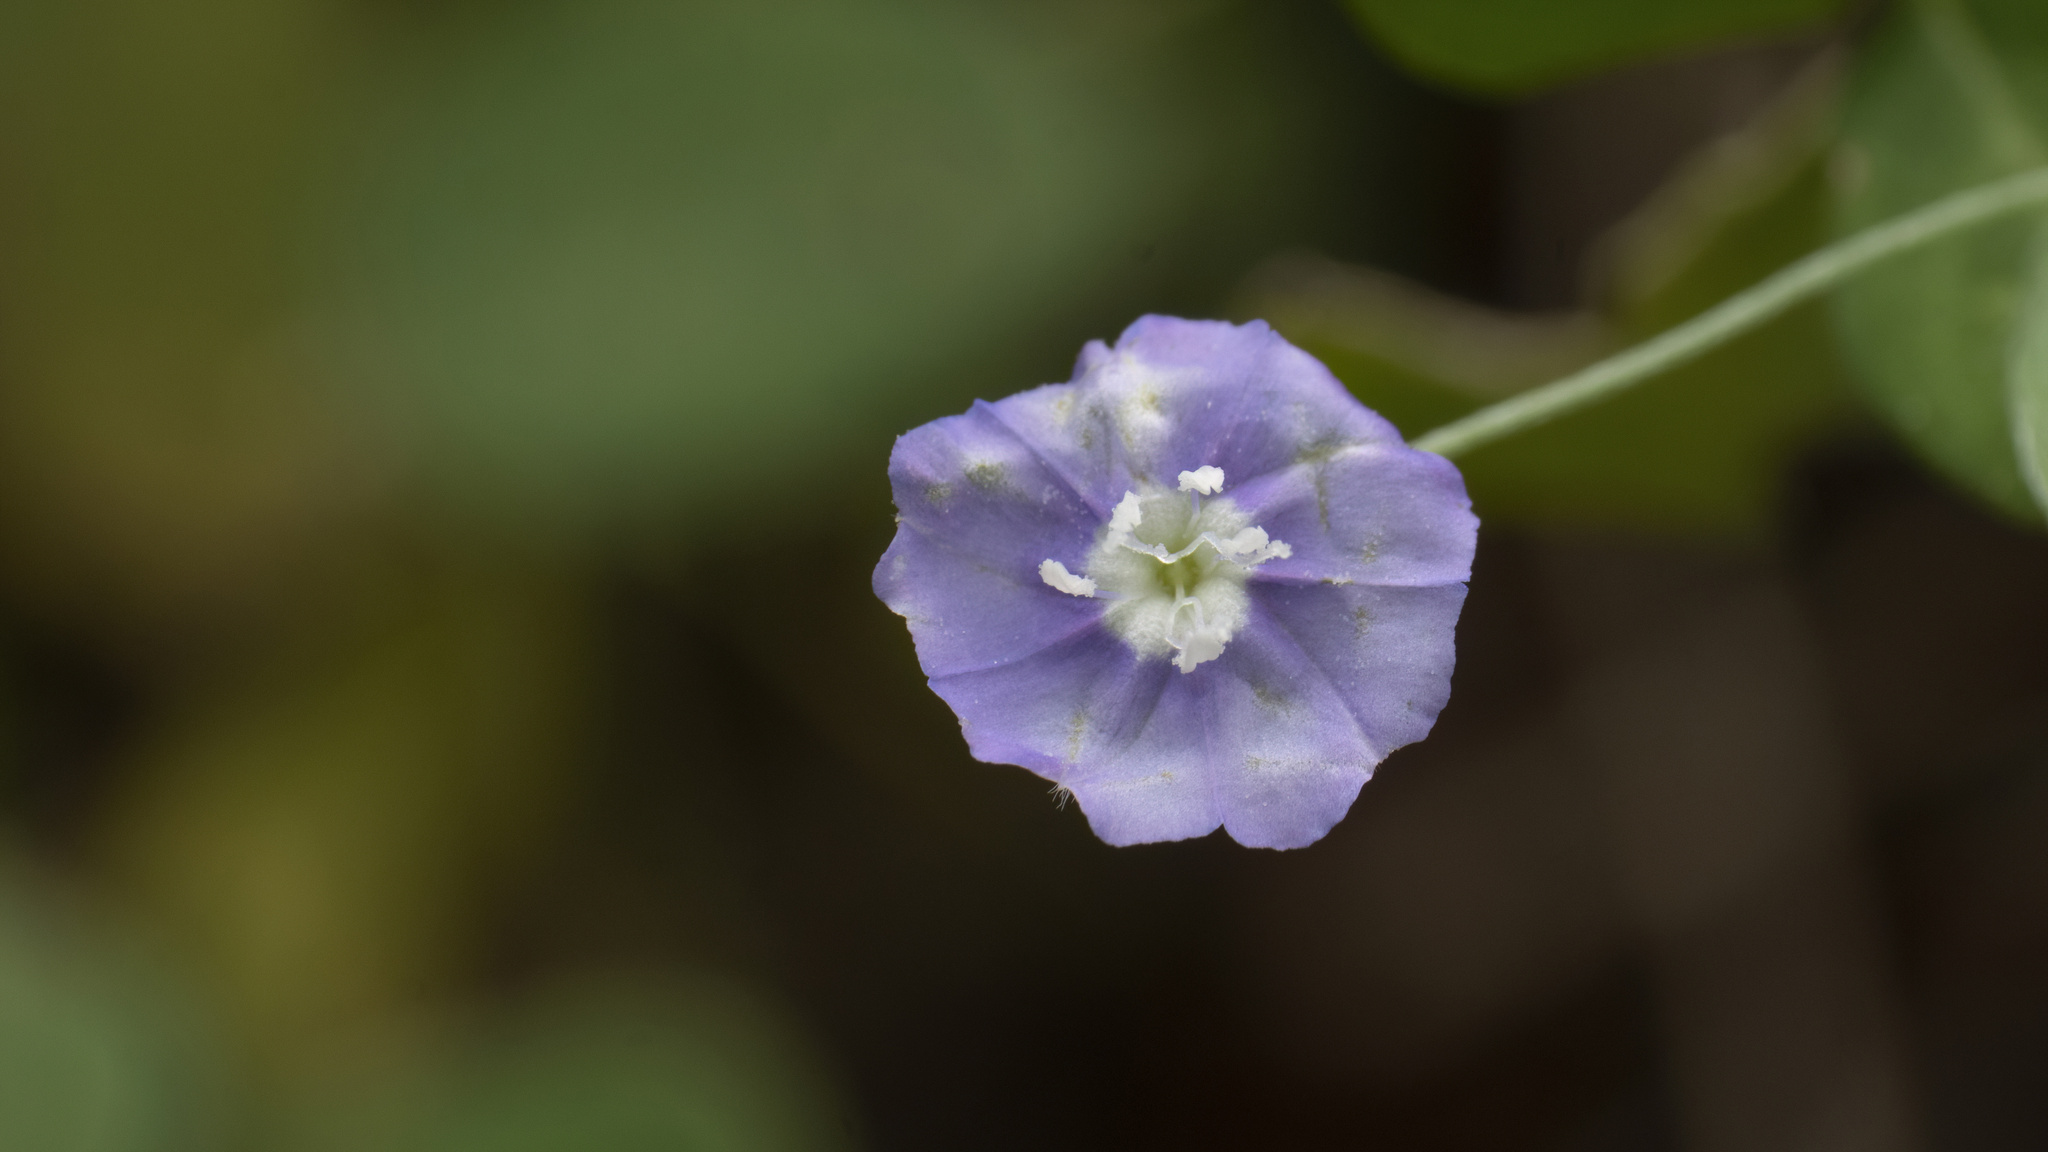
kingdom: Plantae
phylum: Tracheophyta
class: Magnoliopsida
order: Solanales
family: Convolvulaceae
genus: Evolvulus
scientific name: Evolvulus alsinoides
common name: Slender dwarf morning-glory
